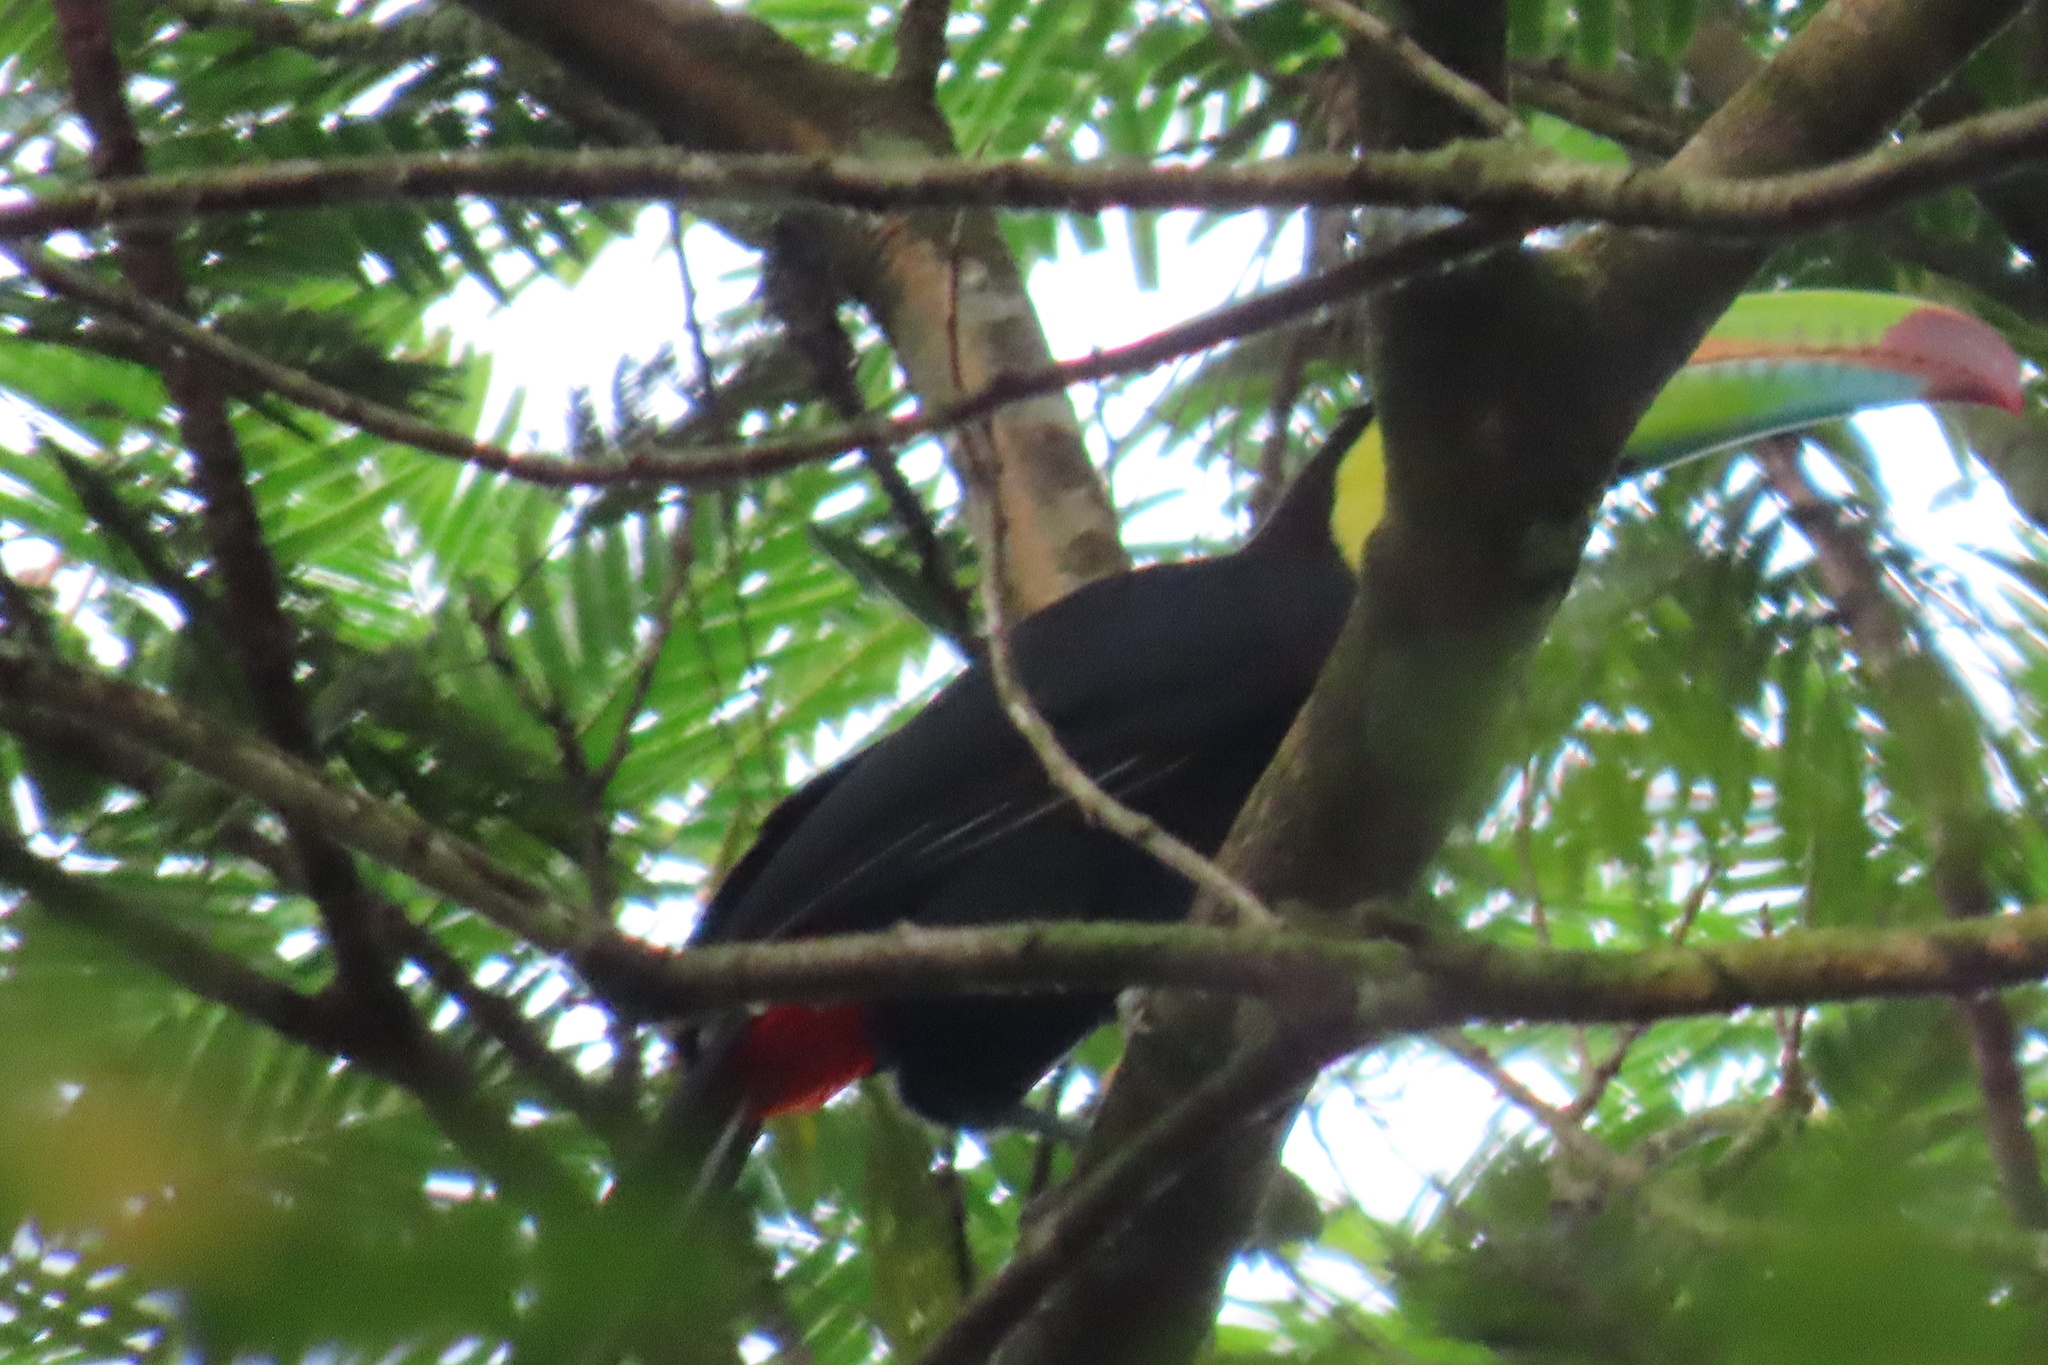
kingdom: Animalia
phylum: Chordata
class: Aves
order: Piciformes
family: Ramphastidae
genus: Ramphastos
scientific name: Ramphastos sulfuratus
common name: Keel-billed toucan
